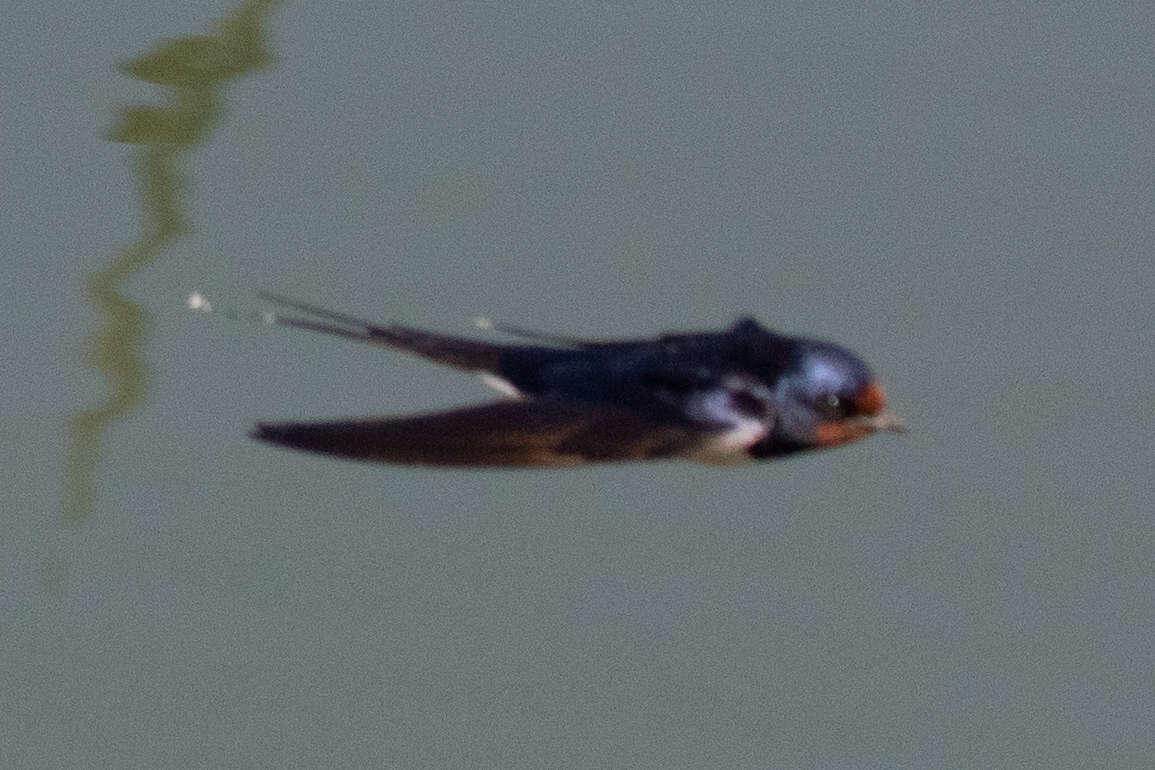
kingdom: Animalia
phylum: Chordata
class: Aves
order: Passeriformes
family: Hirundinidae
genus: Hirundo
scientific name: Hirundo rustica
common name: Barn swallow
